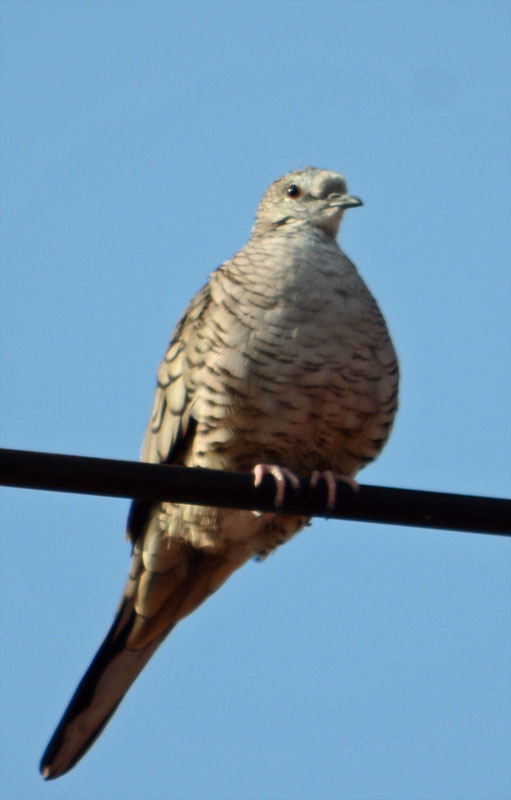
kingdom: Animalia
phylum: Chordata
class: Aves
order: Columbiformes
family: Columbidae
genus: Columbina
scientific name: Columbina inca
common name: Inca dove
